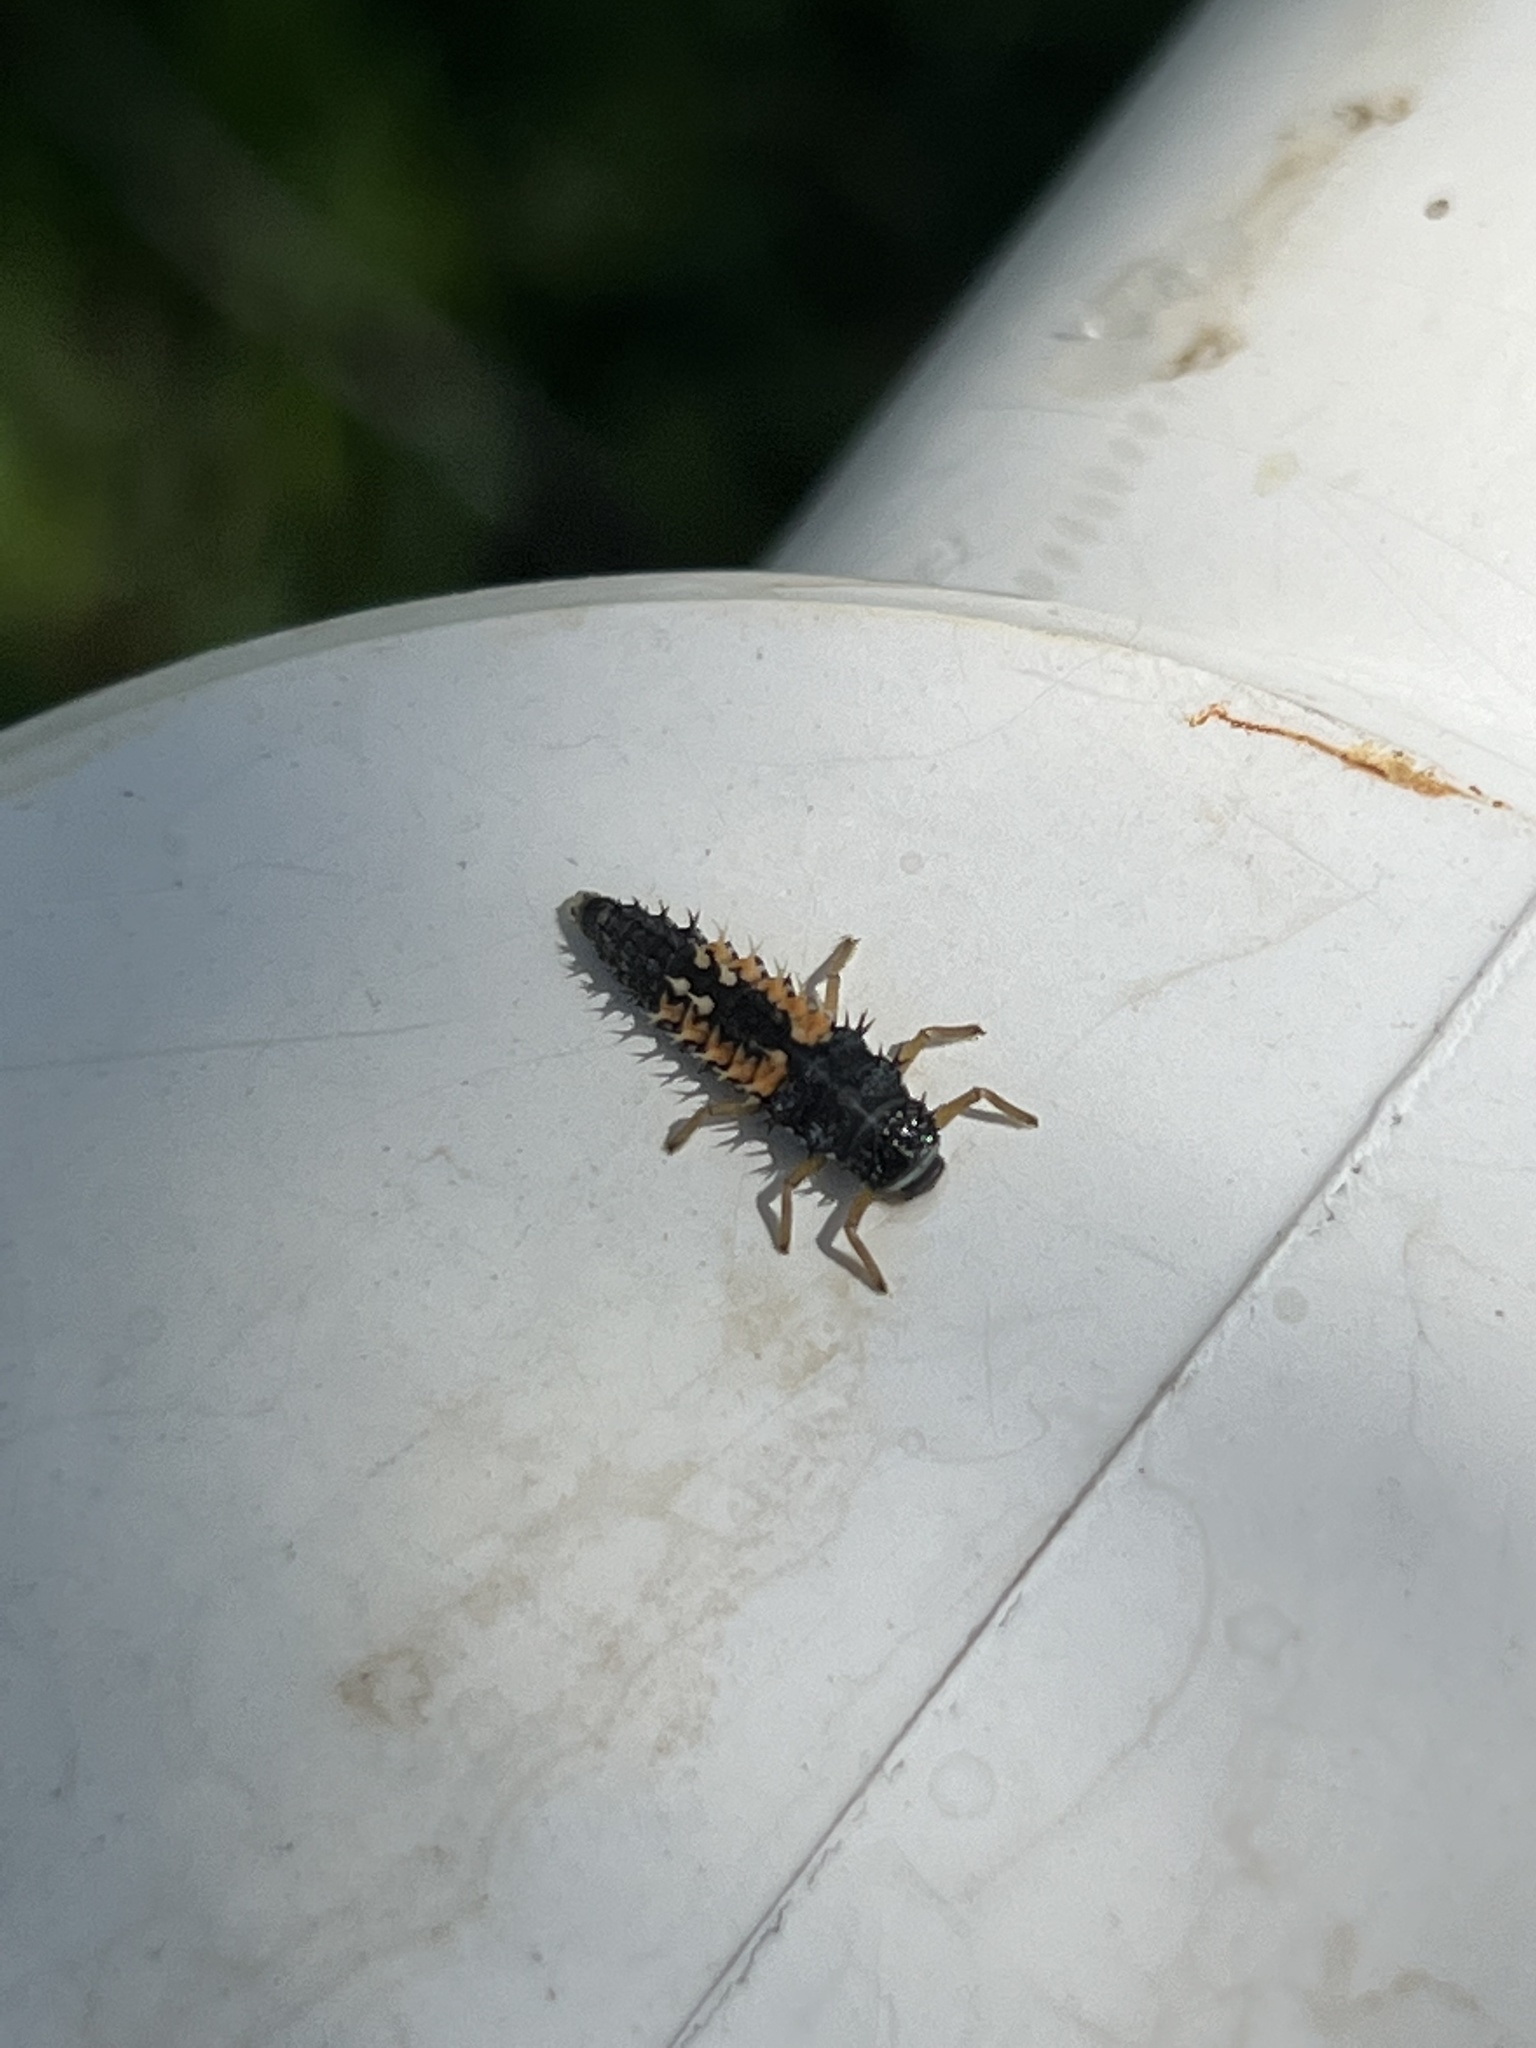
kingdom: Animalia
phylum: Arthropoda
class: Insecta
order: Coleoptera
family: Coccinellidae
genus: Harmonia
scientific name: Harmonia axyridis
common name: Harlequin ladybird
